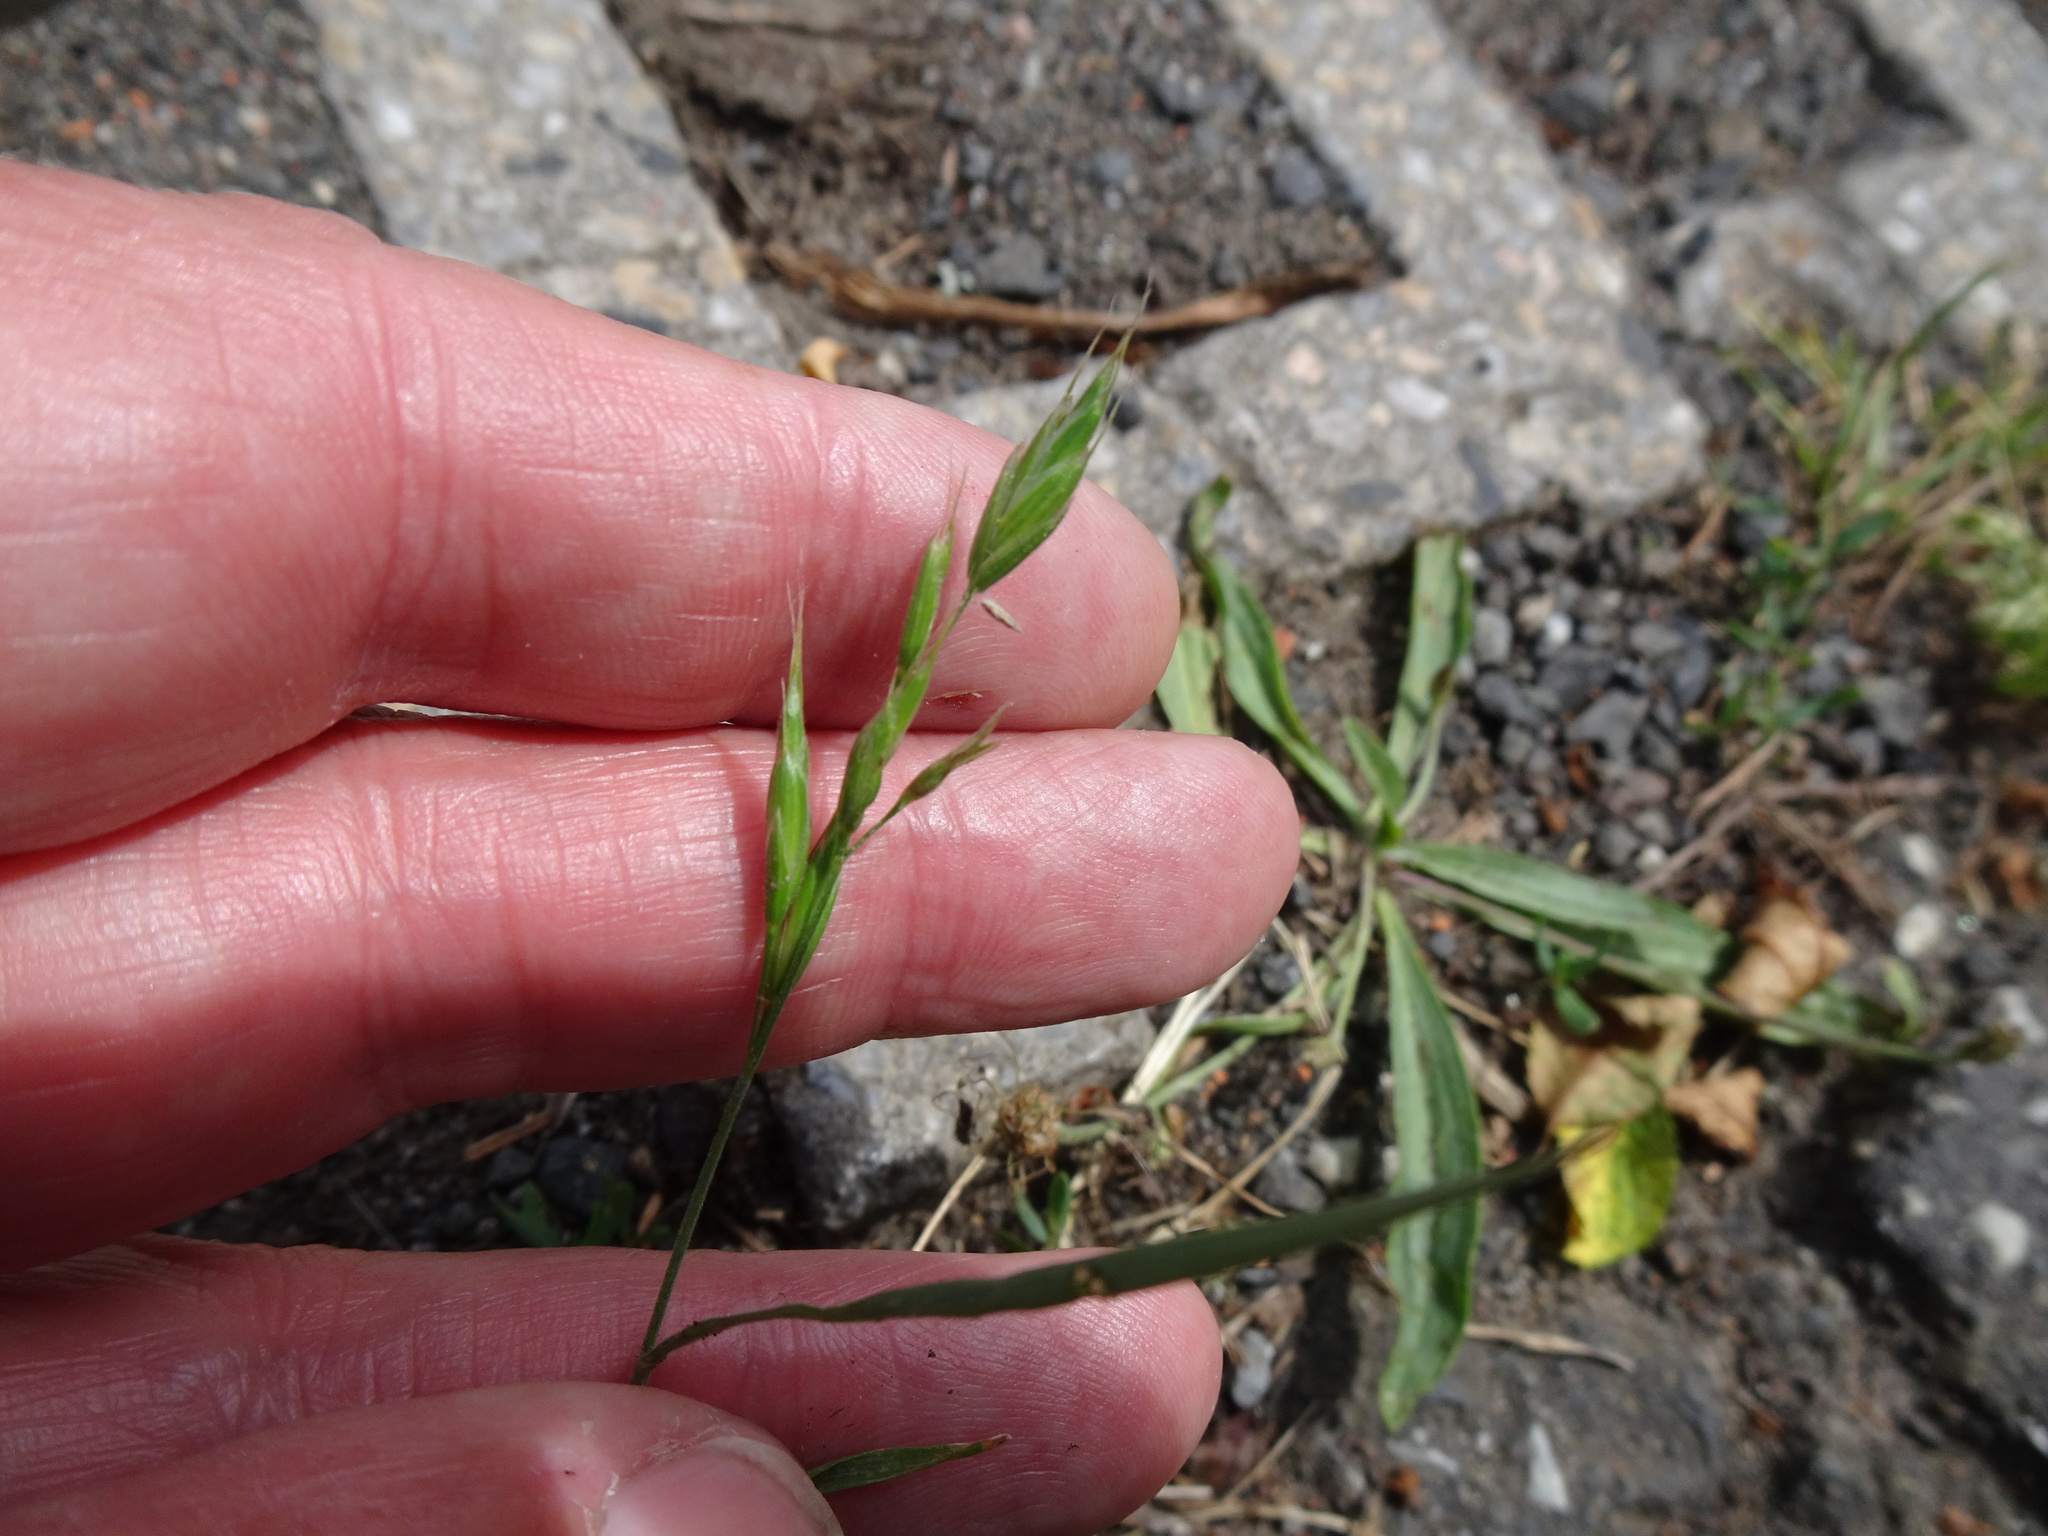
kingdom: Plantae
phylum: Tracheophyta
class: Liliopsida
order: Poales
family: Poaceae
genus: Bromus
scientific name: Bromus hordeaceus
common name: Soft brome
